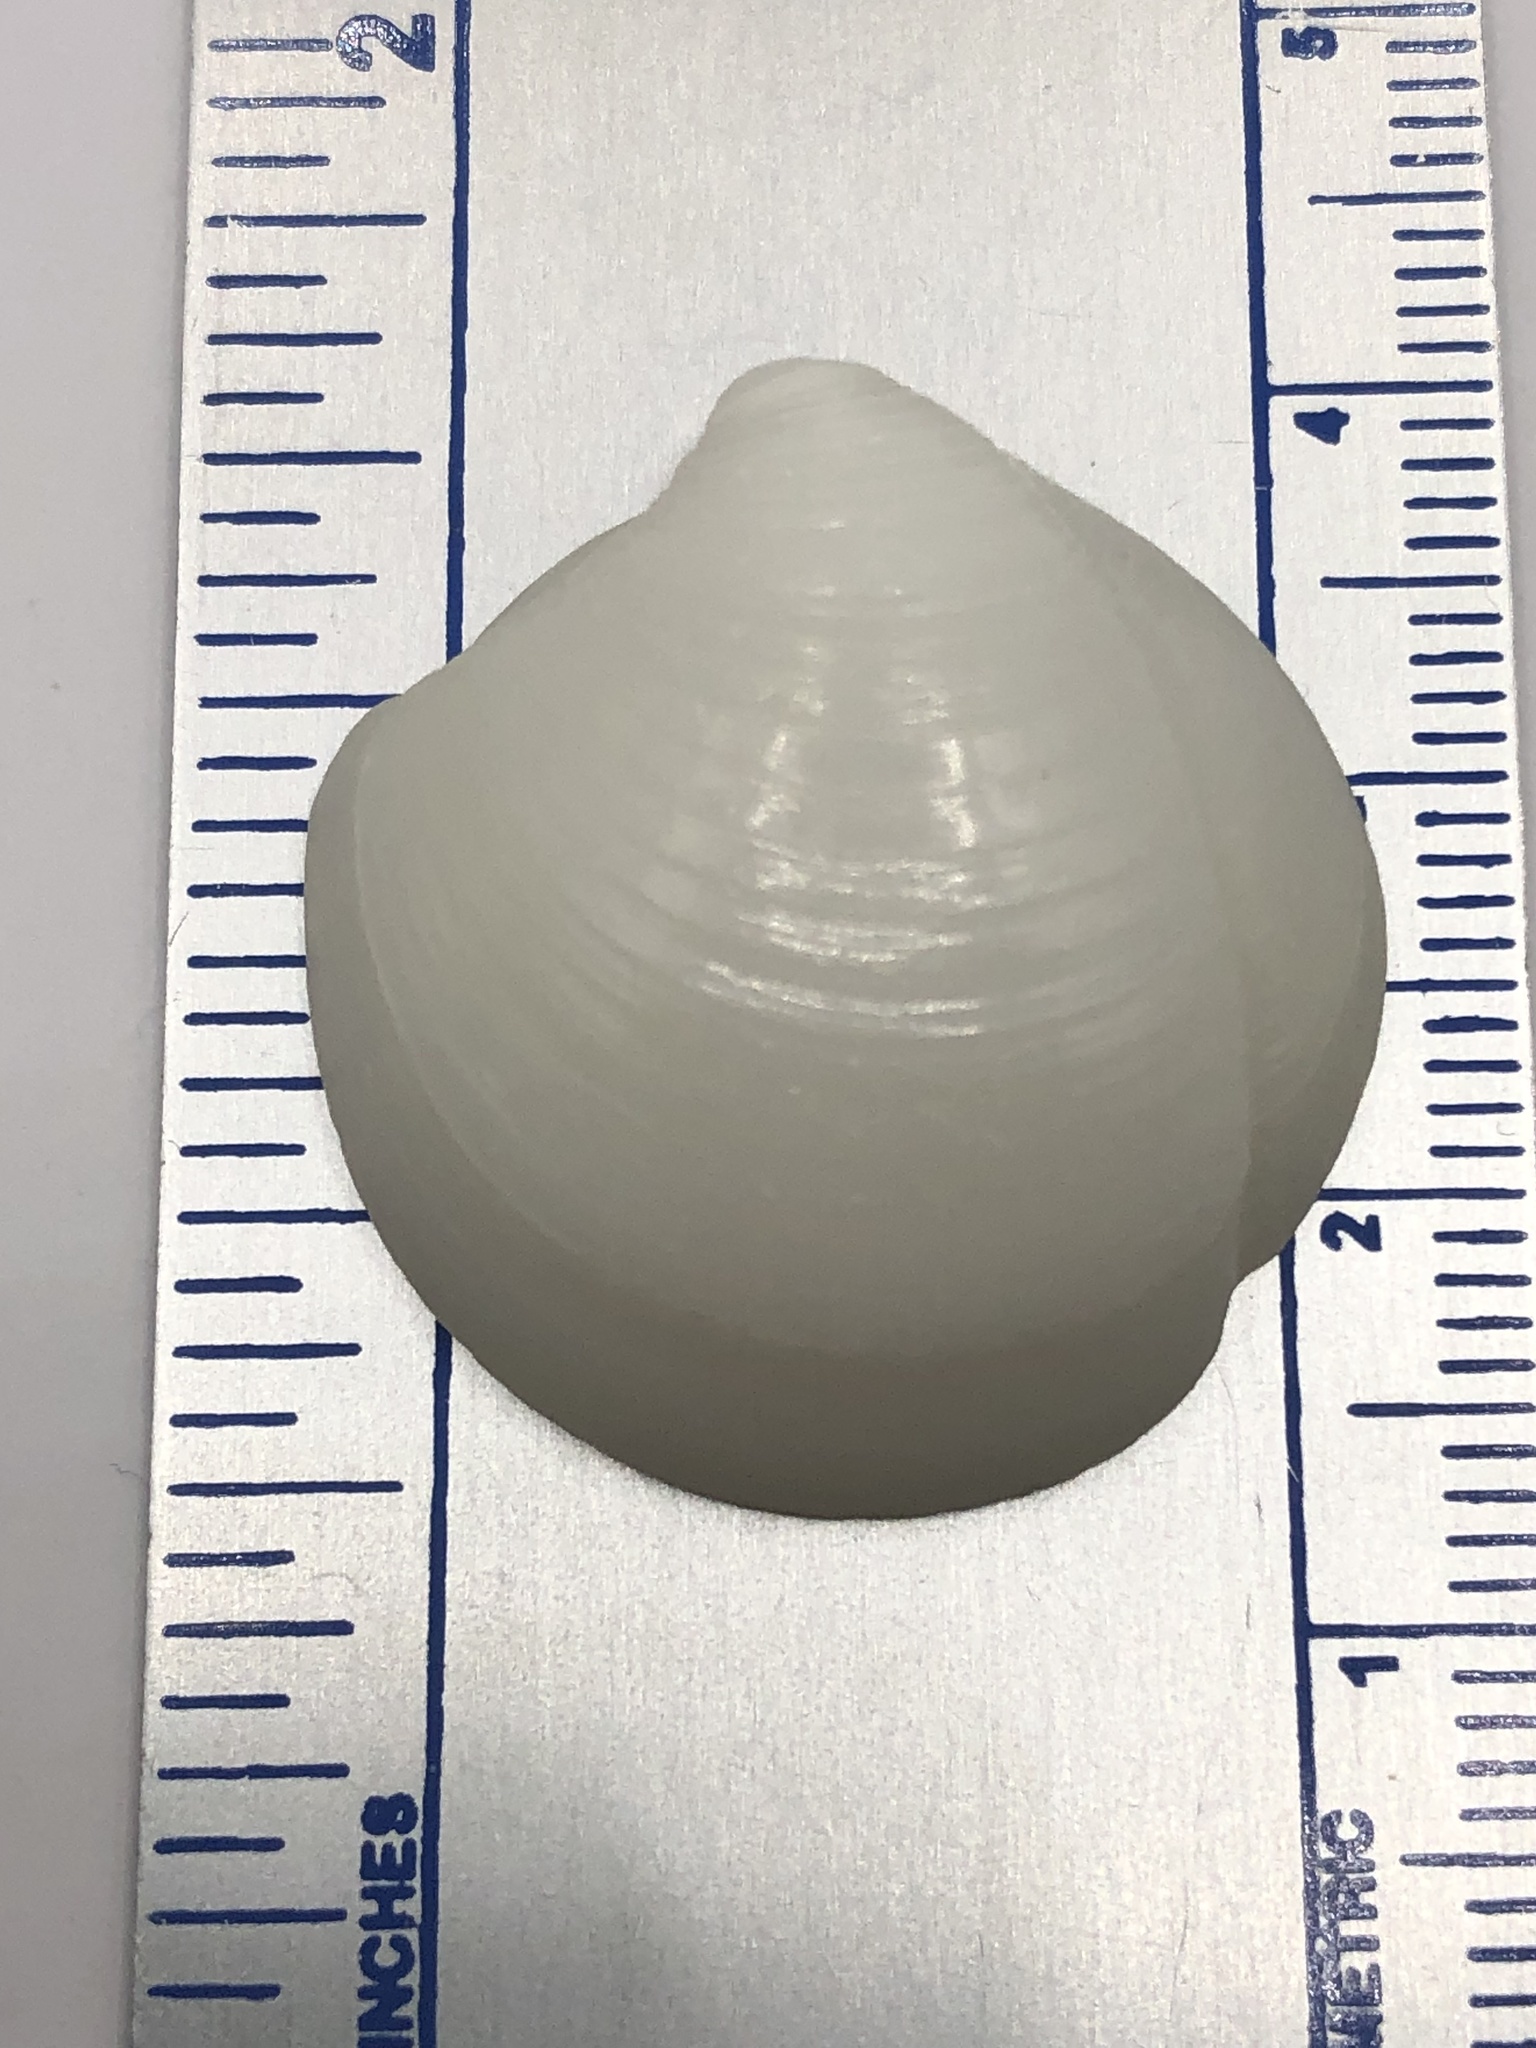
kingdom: Animalia
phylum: Mollusca
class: Bivalvia
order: Lucinida
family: Lucinidae
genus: Lucina
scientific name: Lucina pensylvanica
